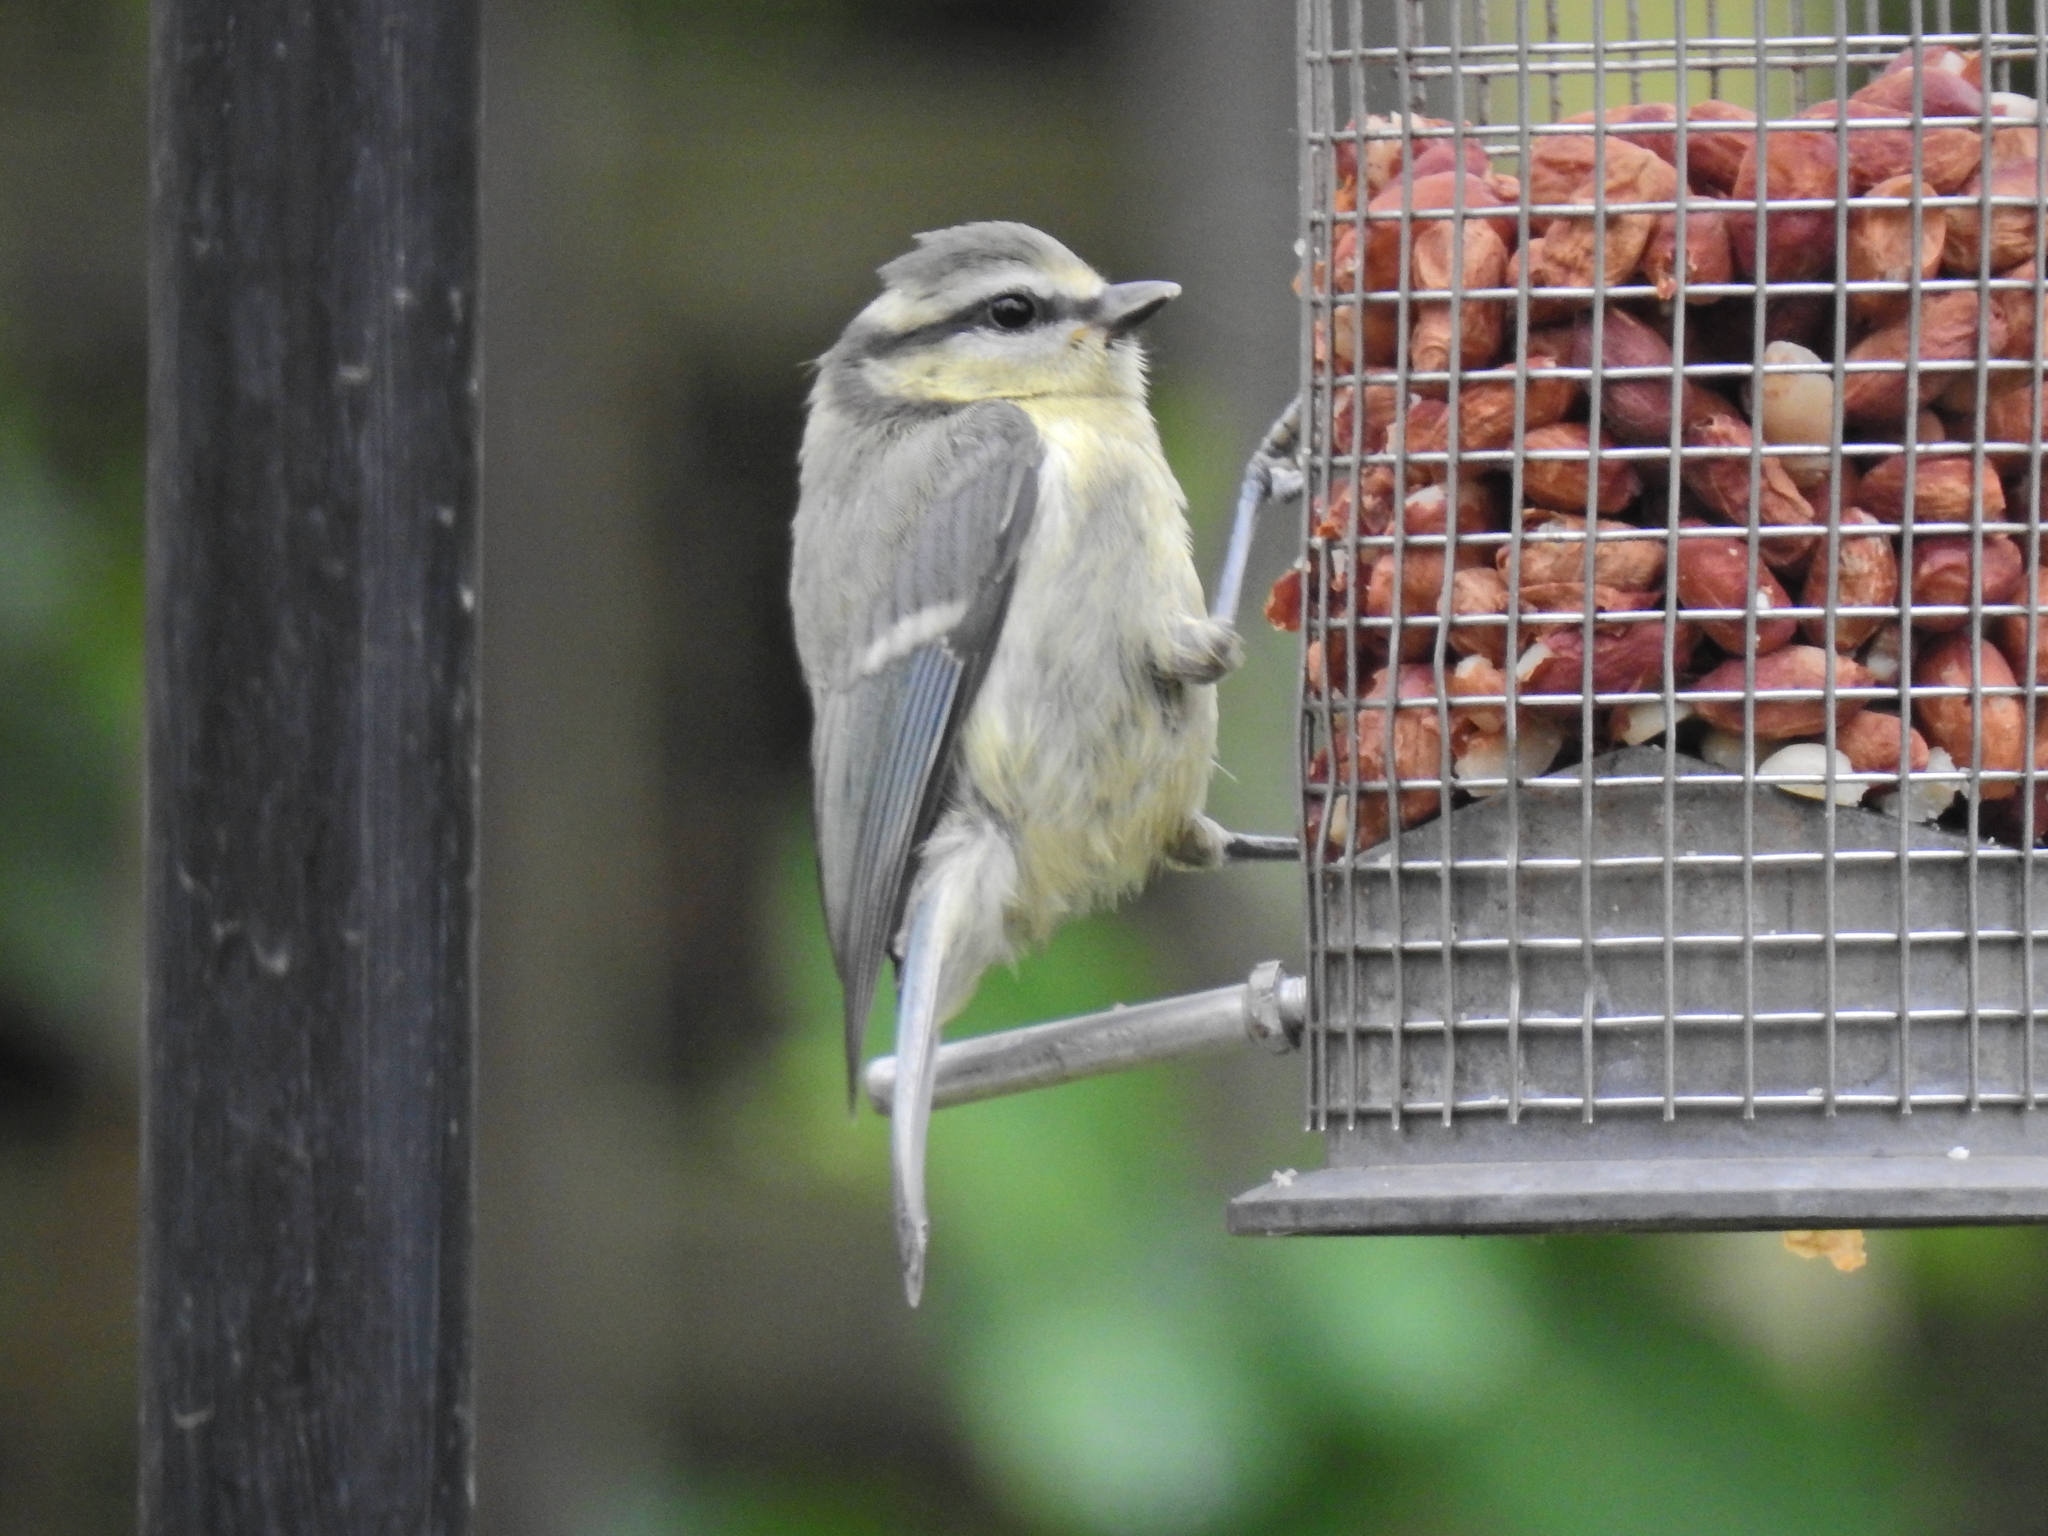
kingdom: Animalia
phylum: Chordata
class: Aves
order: Passeriformes
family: Paridae
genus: Cyanistes
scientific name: Cyanistes caeruleus
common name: Eurasian blue tit
